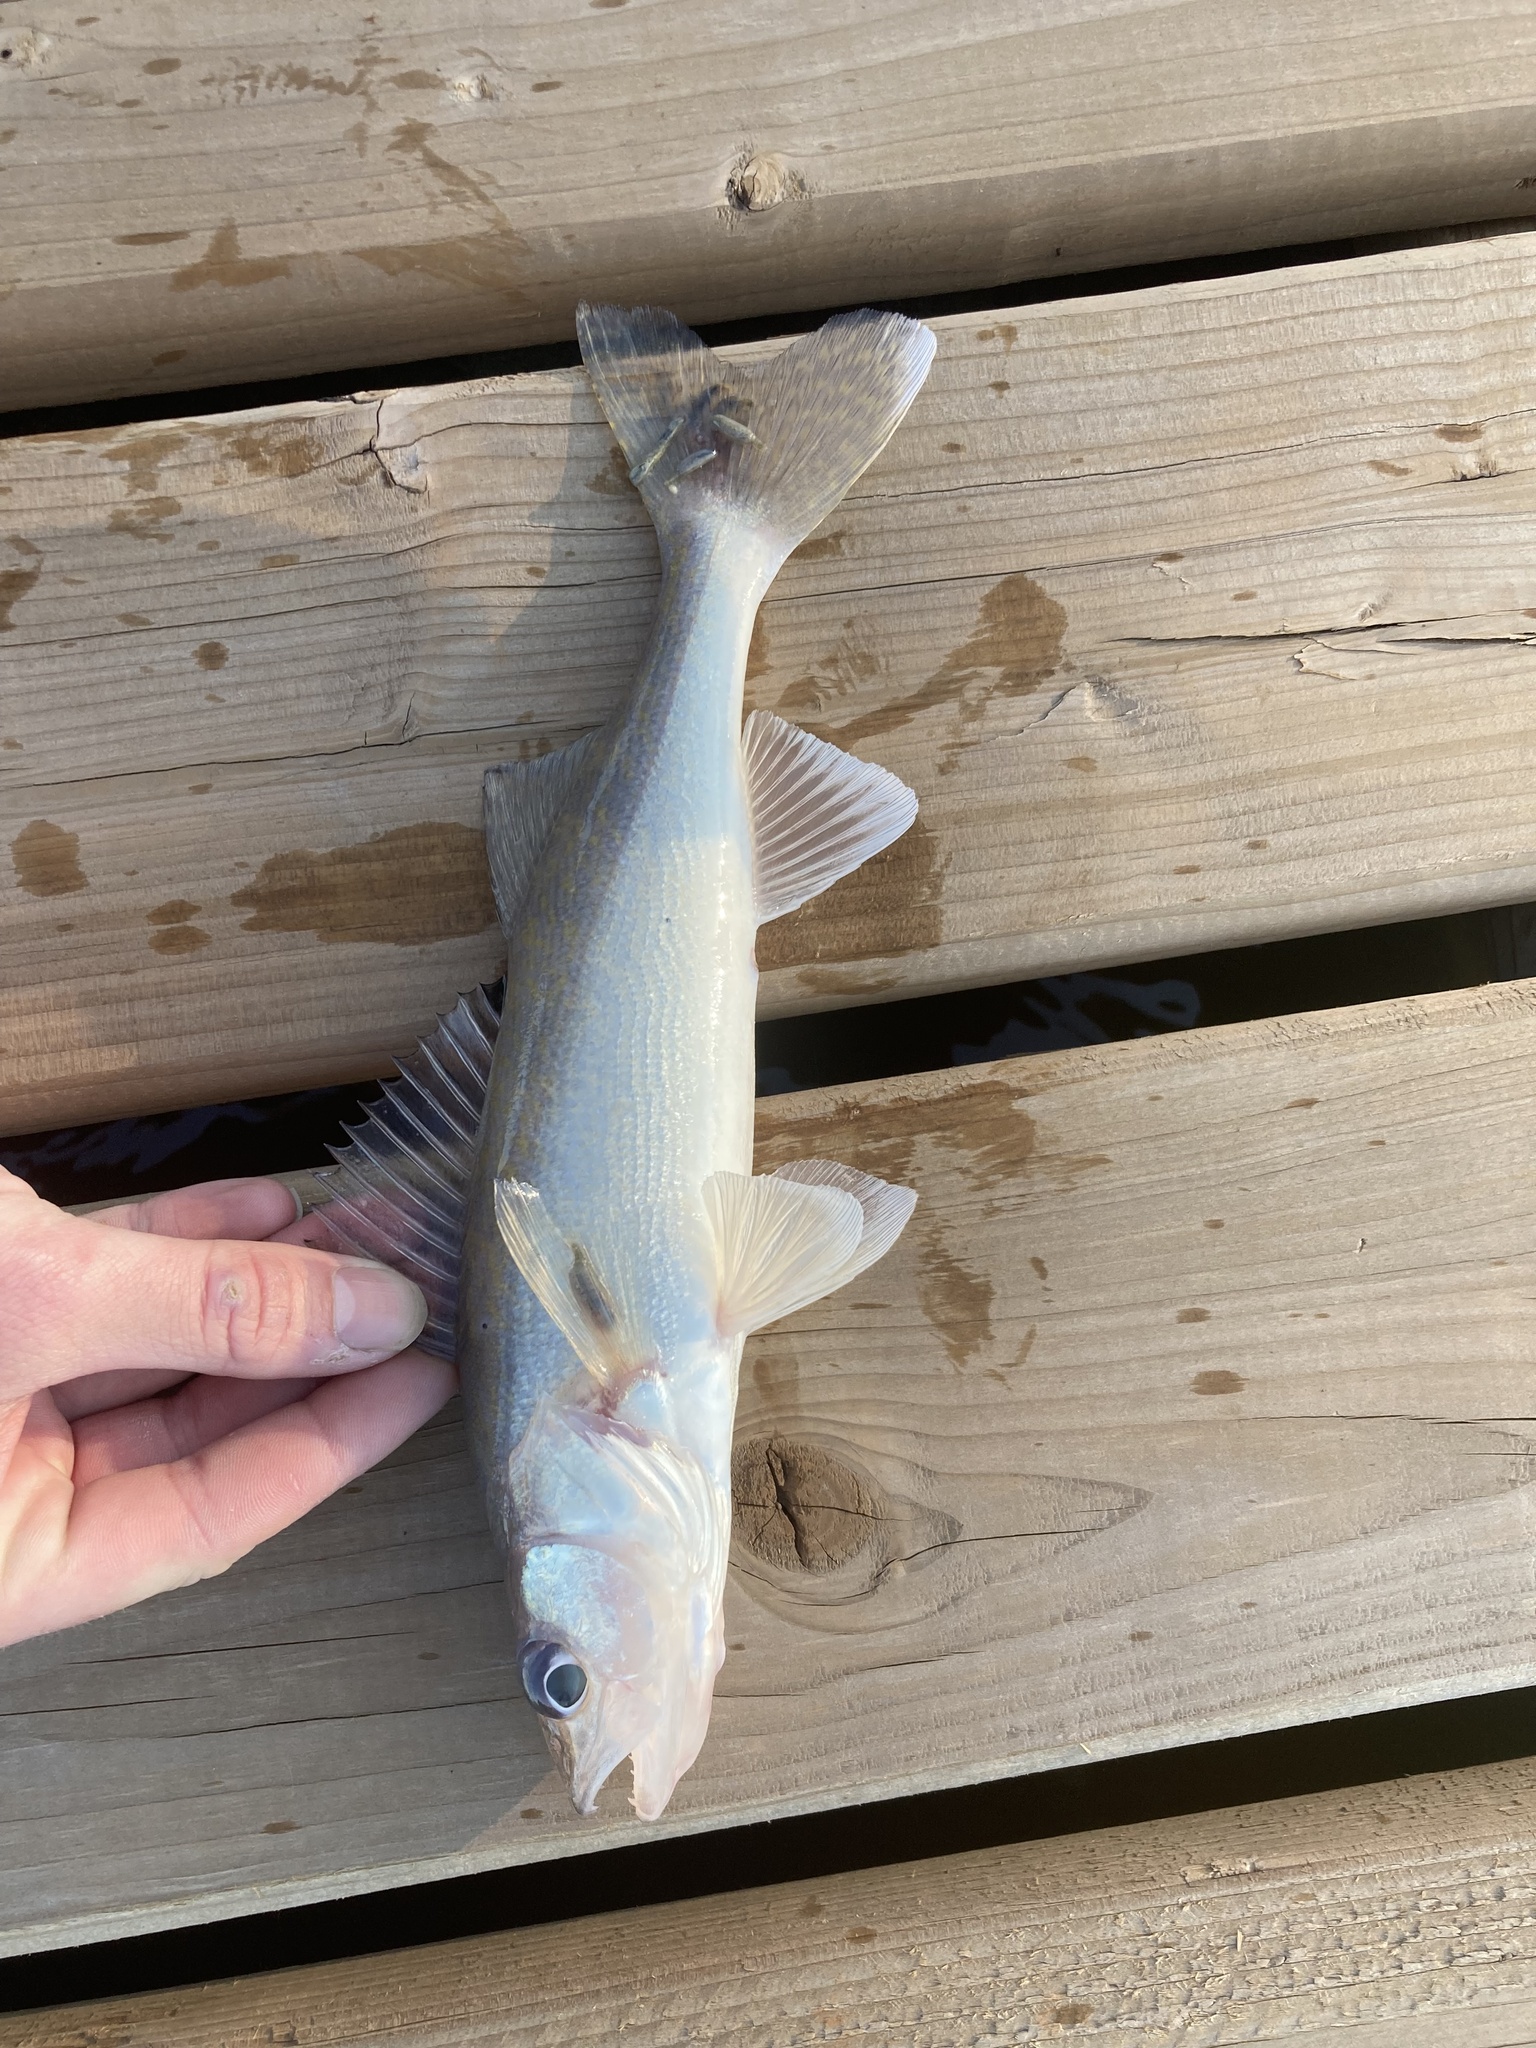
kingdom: Animalia
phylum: Chordata
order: Perciformes
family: Percidae
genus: Sander
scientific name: Sander vitreus
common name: Walleye
